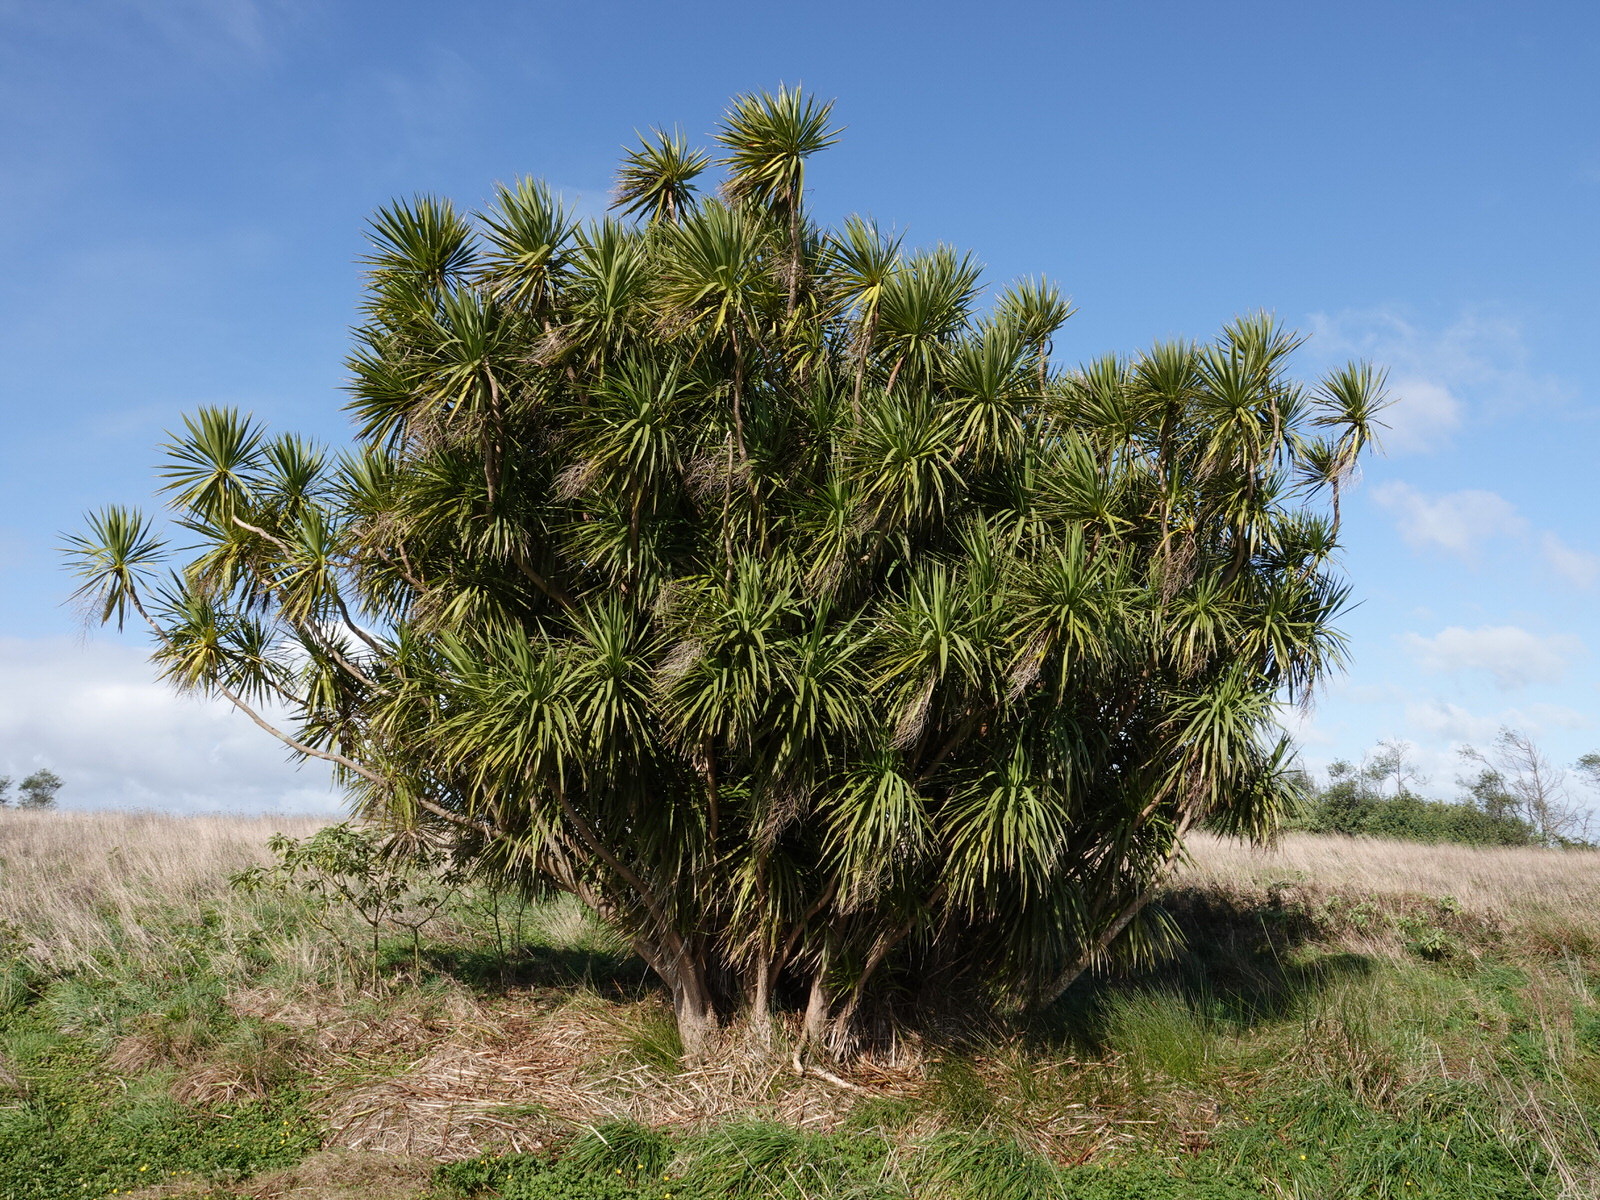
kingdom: Plantae
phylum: Tracheophyta
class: Liliopsida
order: Asparagales
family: Asparagaceae
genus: Cordyline
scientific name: Cordyline australis
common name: Cabbage-palm
